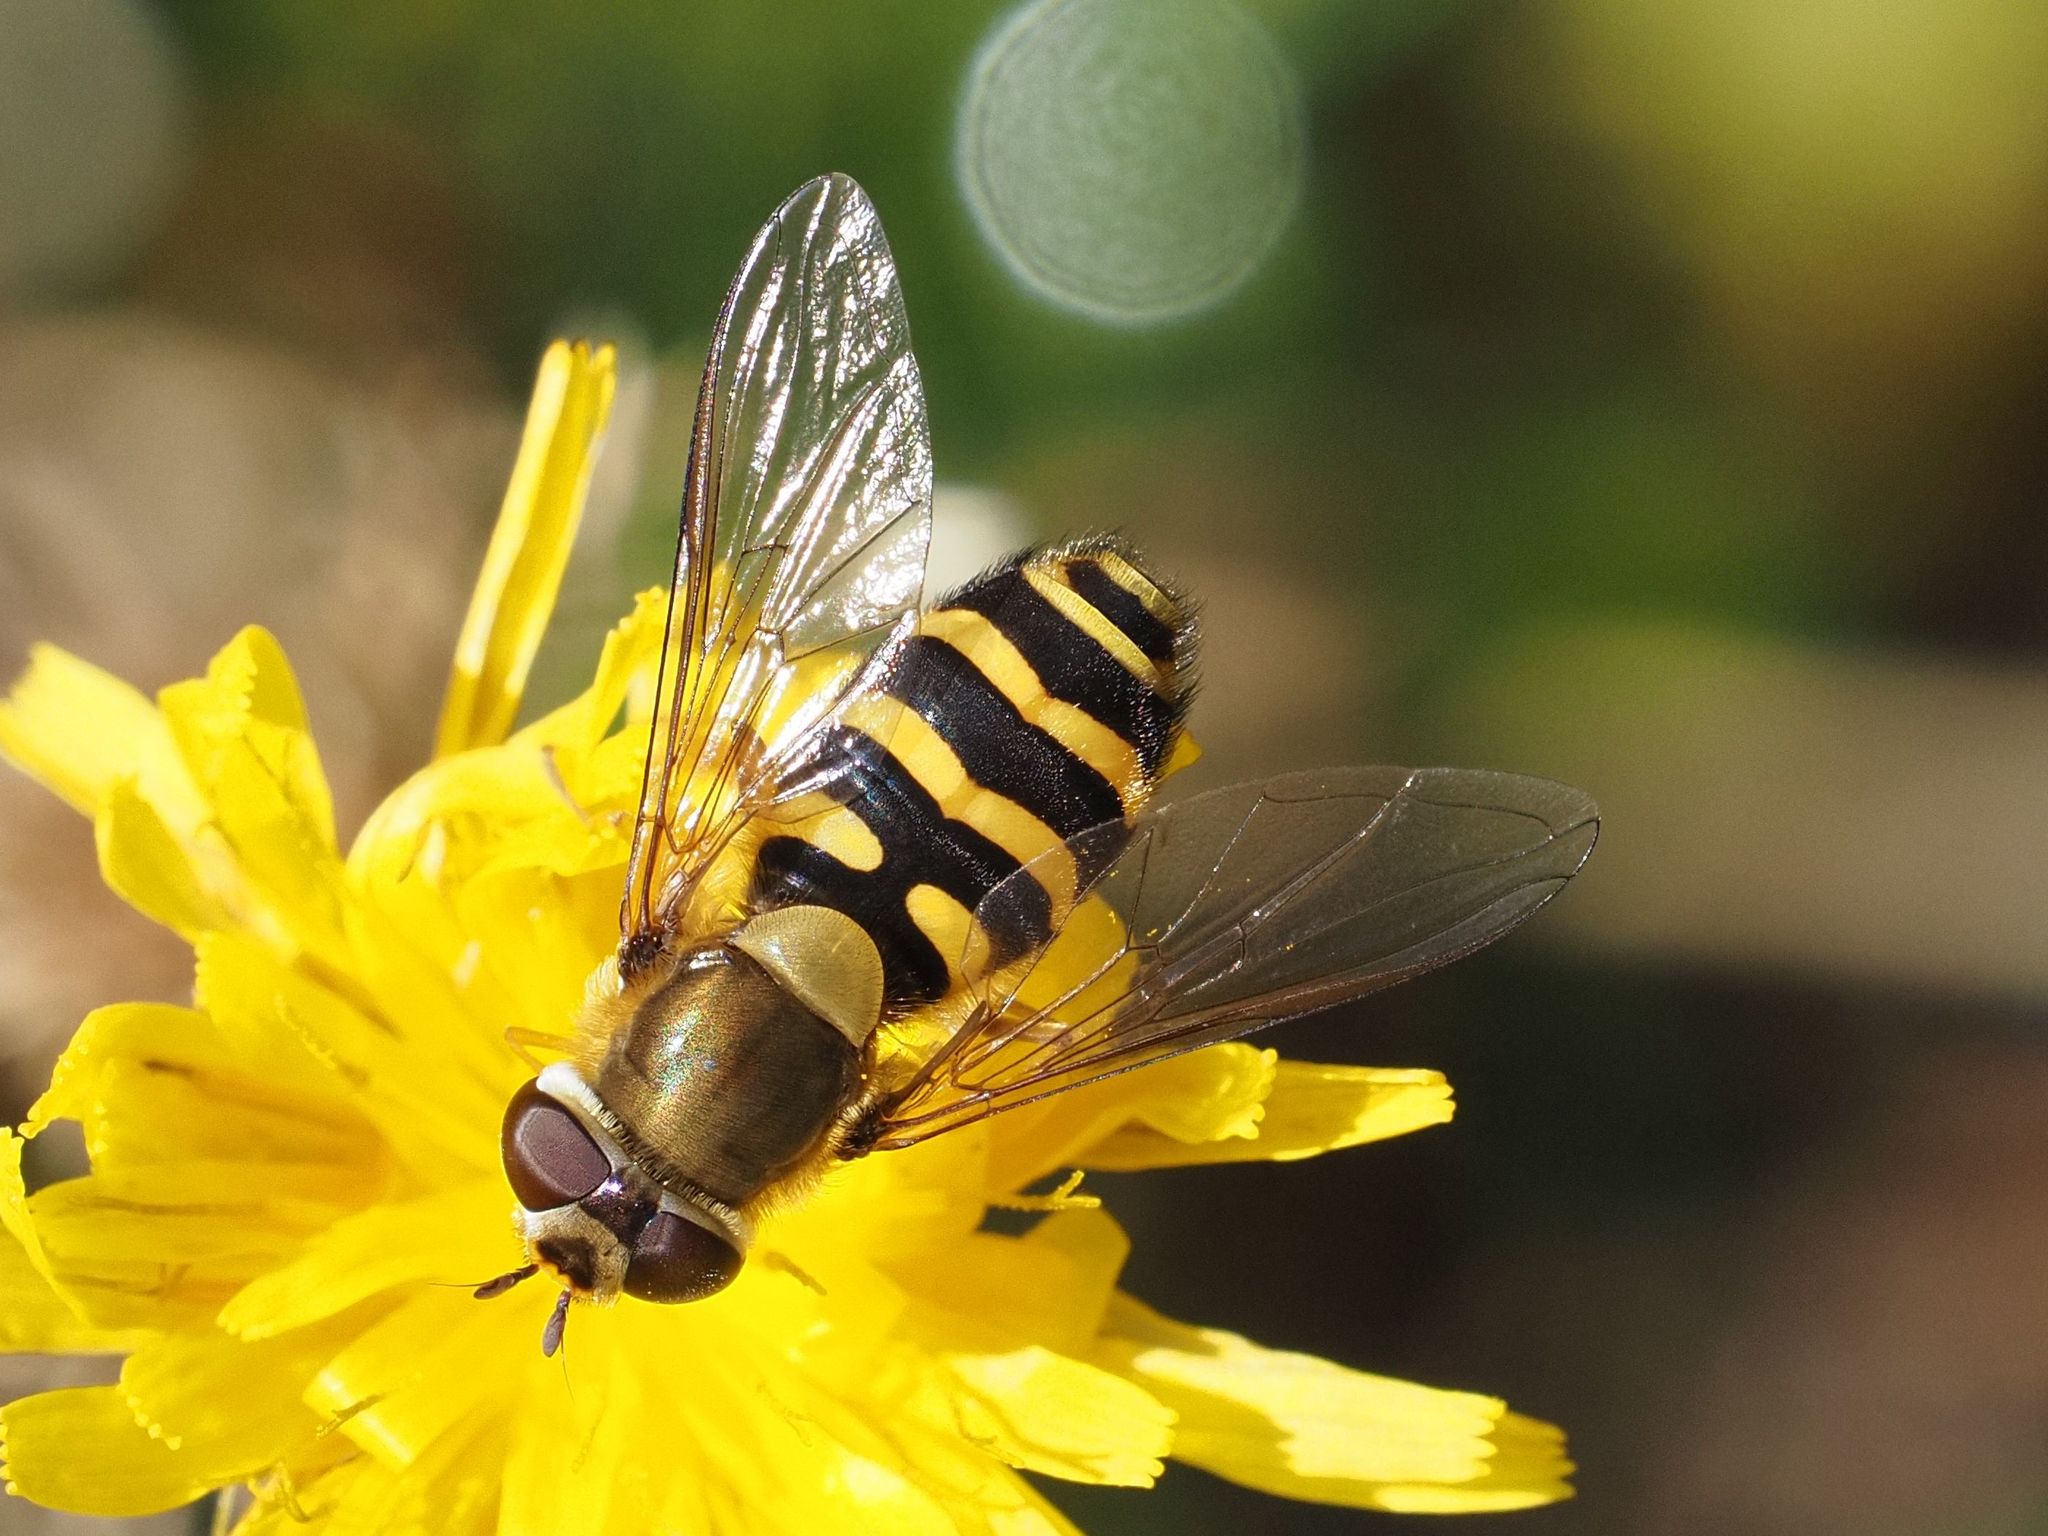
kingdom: Animalia
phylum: Arthropoda
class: Insecta
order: Diptera
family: Syrphidae
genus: Syrphus
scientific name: Syrphus torvus
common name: Hairy-eyed flower fly
